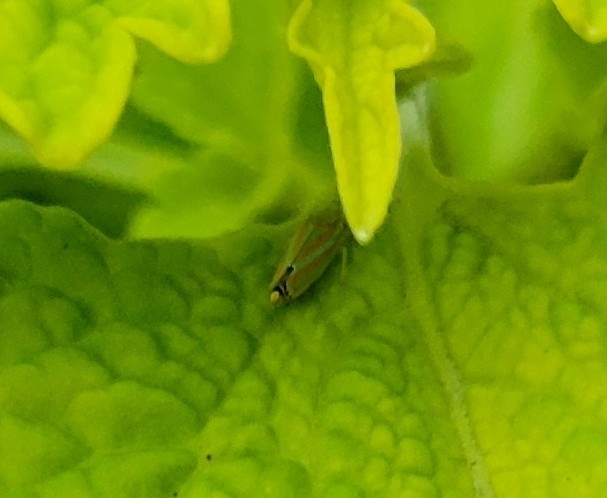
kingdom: Animalia
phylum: Arthropoda
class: Insecta
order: Hemiptera
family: Cicadellidae
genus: Graphocephala
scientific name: Graphocephala versuta
